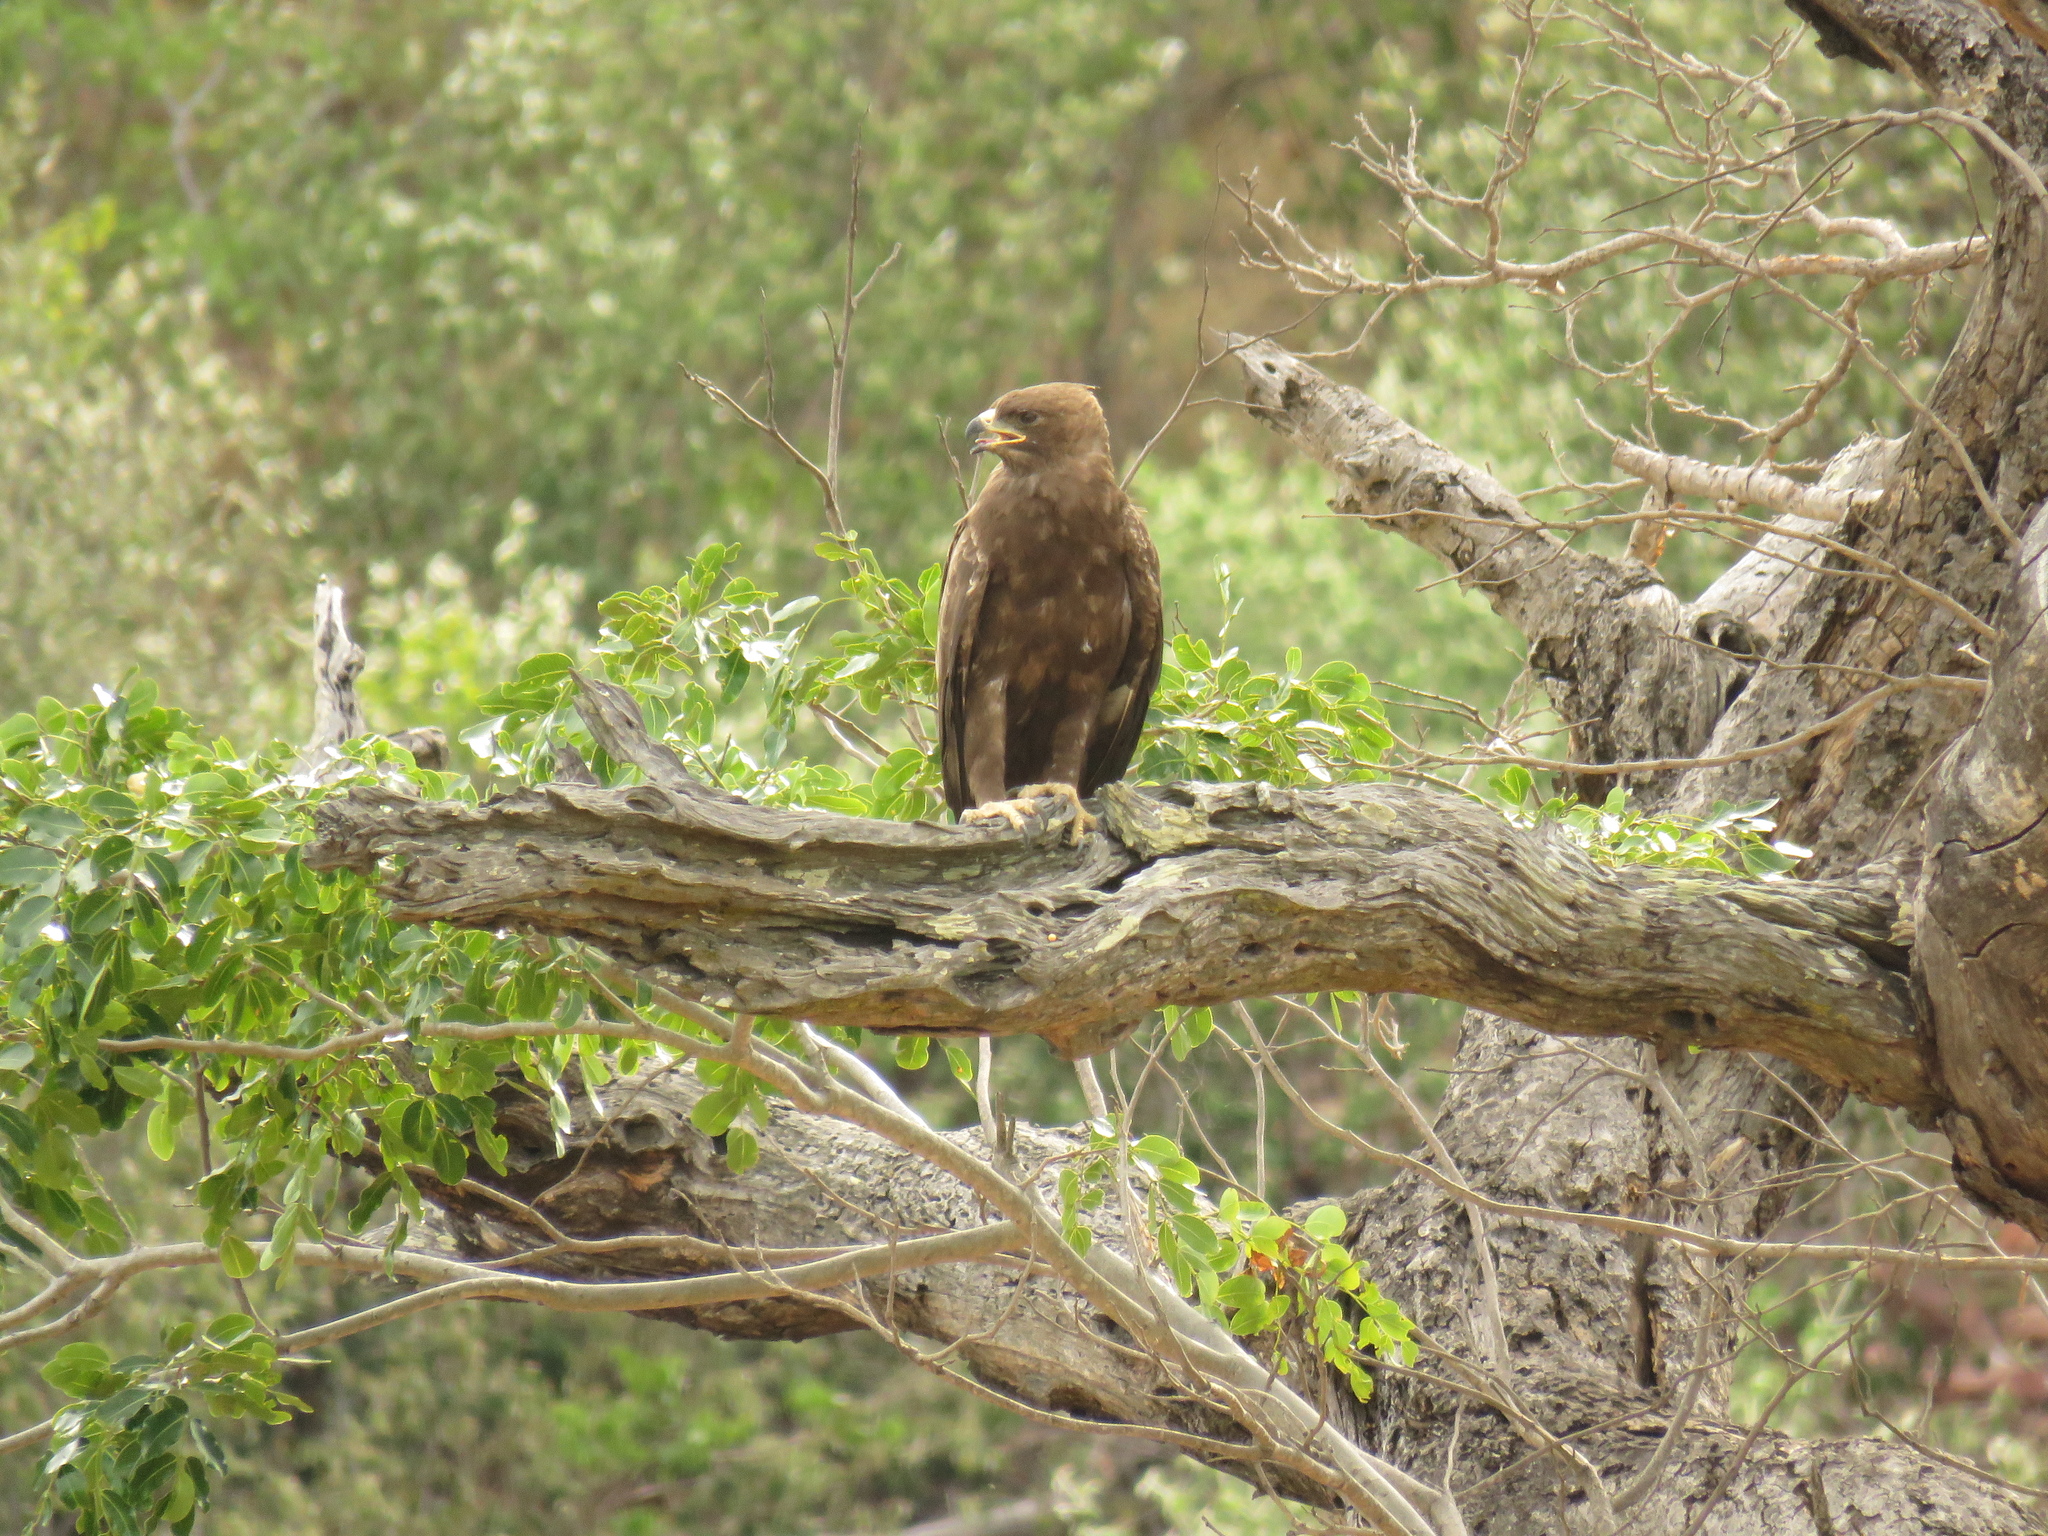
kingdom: Animalia
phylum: Chordata
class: Aves
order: Accipitriformes
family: Accipitridae
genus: Hieraaetus
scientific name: Hieraaetus wahlbergi
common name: Wahlberg's eagle
